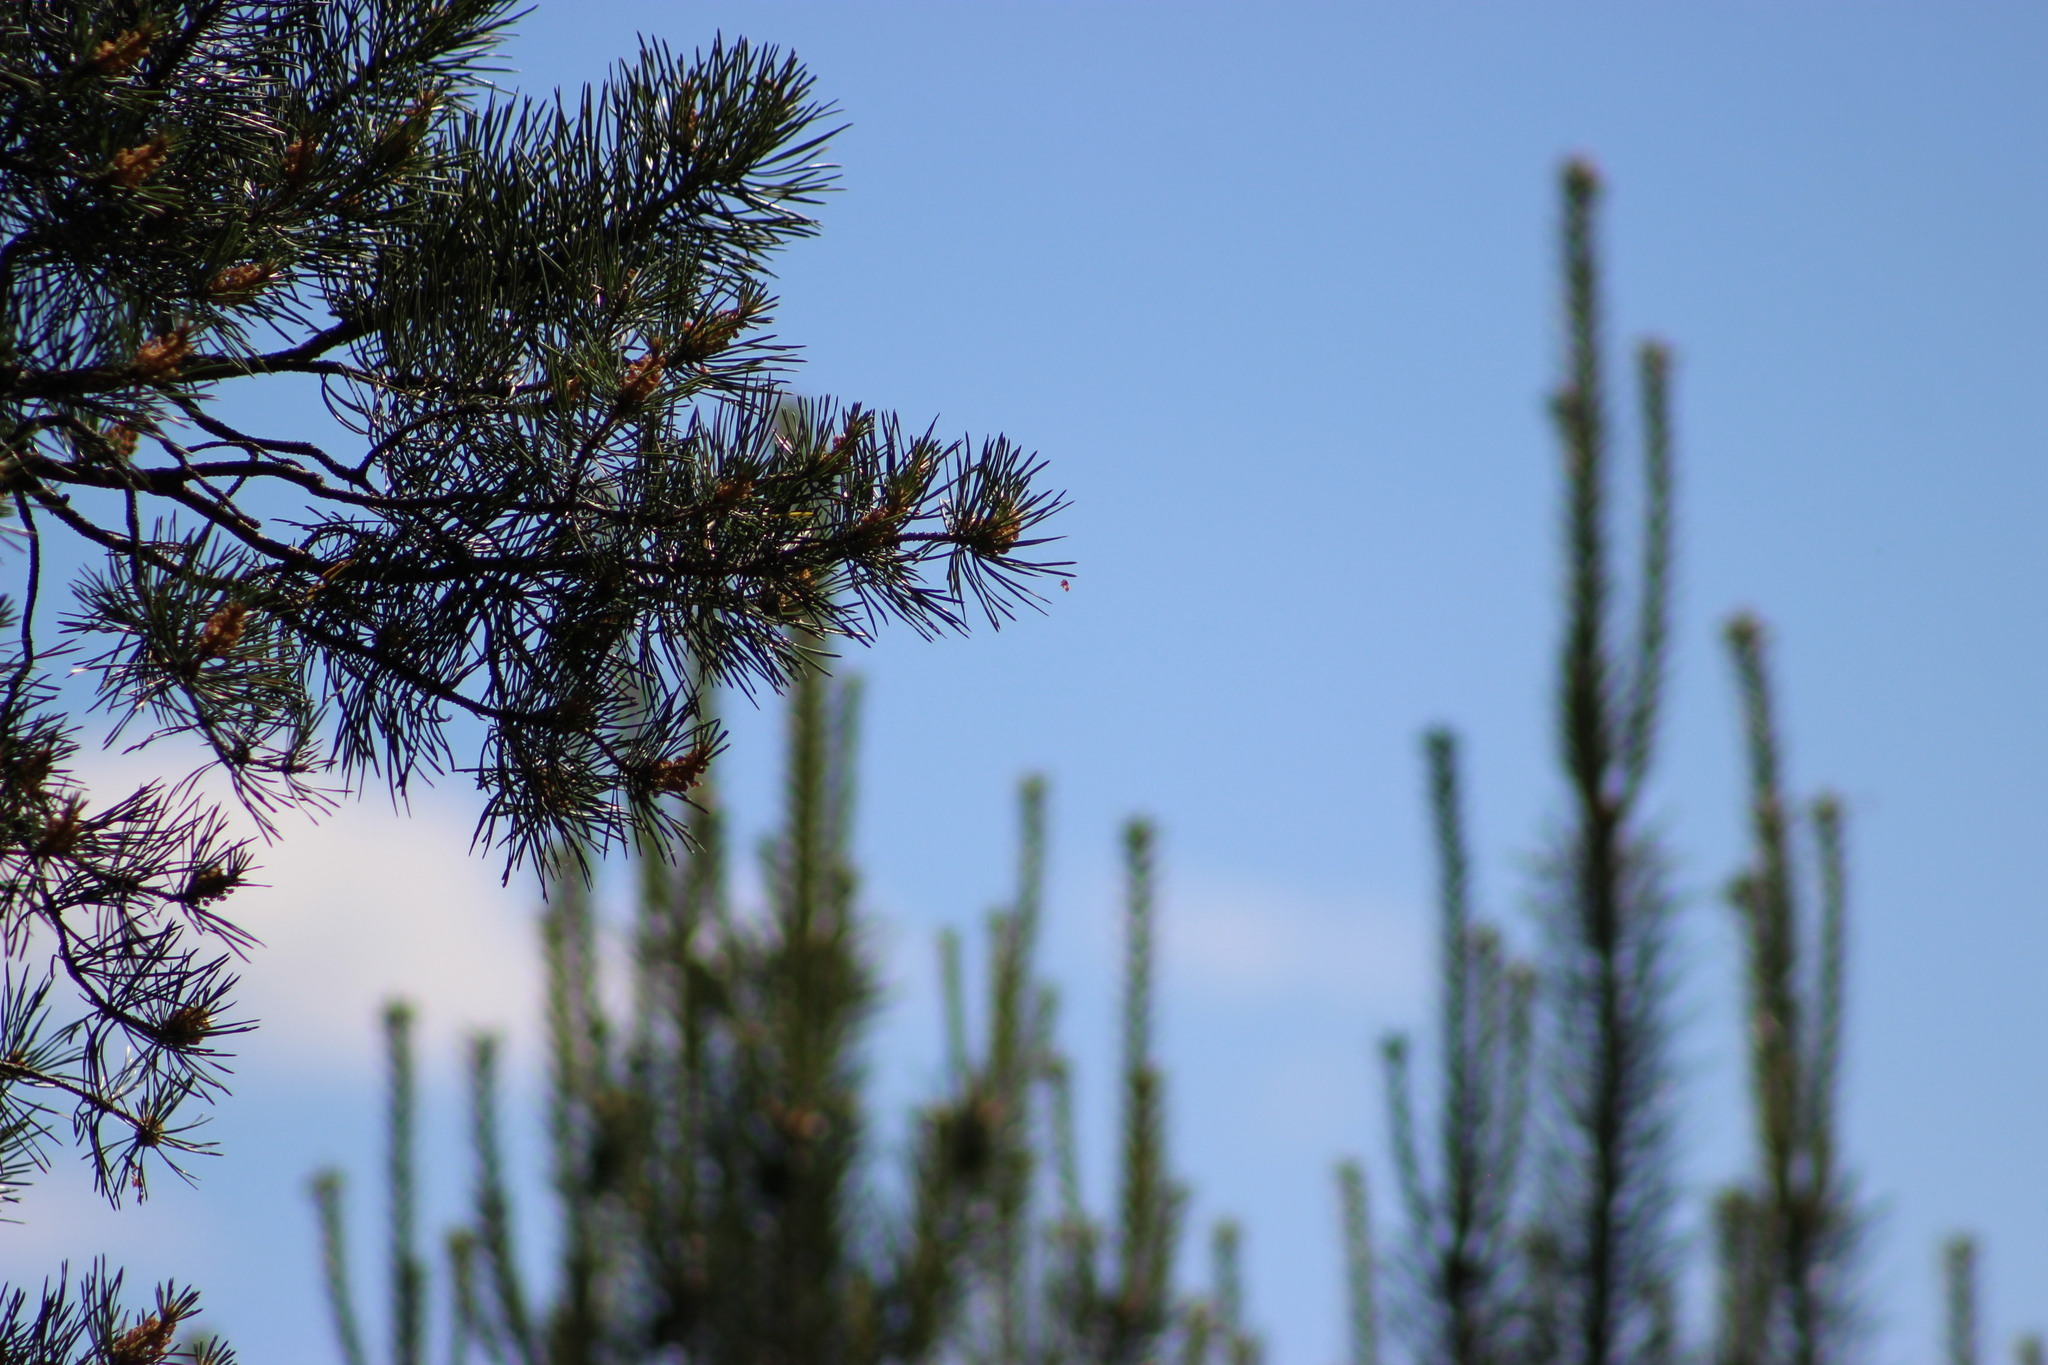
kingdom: Plantae
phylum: Tracheophyta
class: Pinopsida
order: Pinales
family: Pinaceae
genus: Pinus
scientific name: Pinus sylvestris
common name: Scots pine
